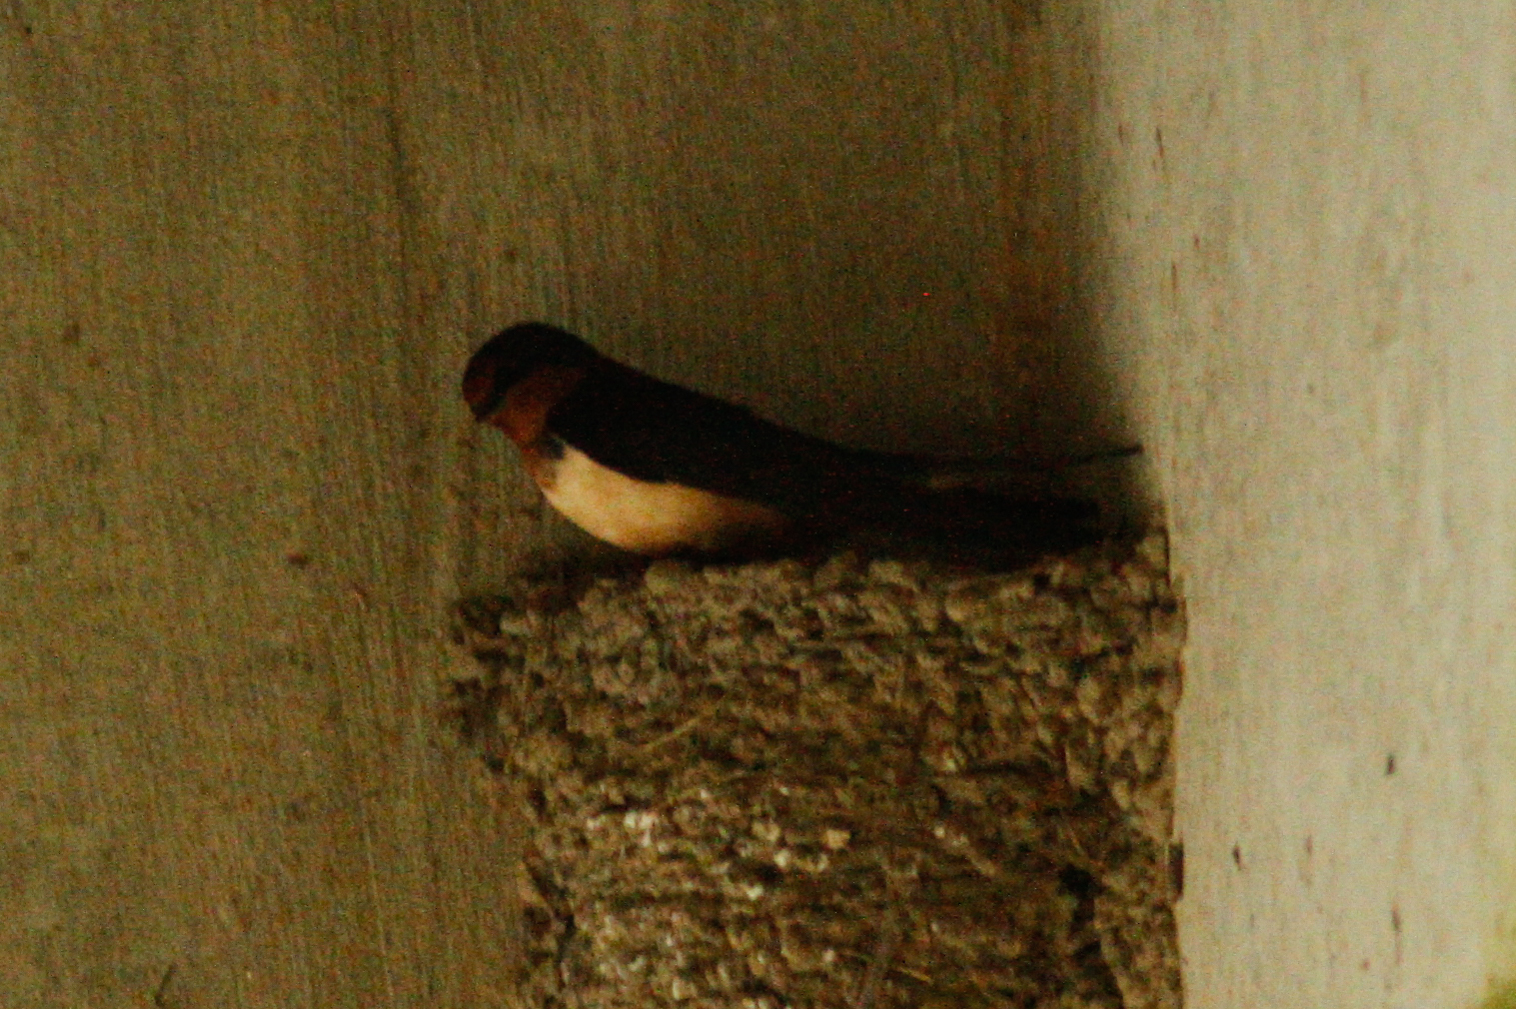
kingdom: Animalia
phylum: Chordata
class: Aves
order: Passeriformes
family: Hirundinidae
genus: Hirundo
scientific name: Hirundo rustica
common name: Barn swallow
